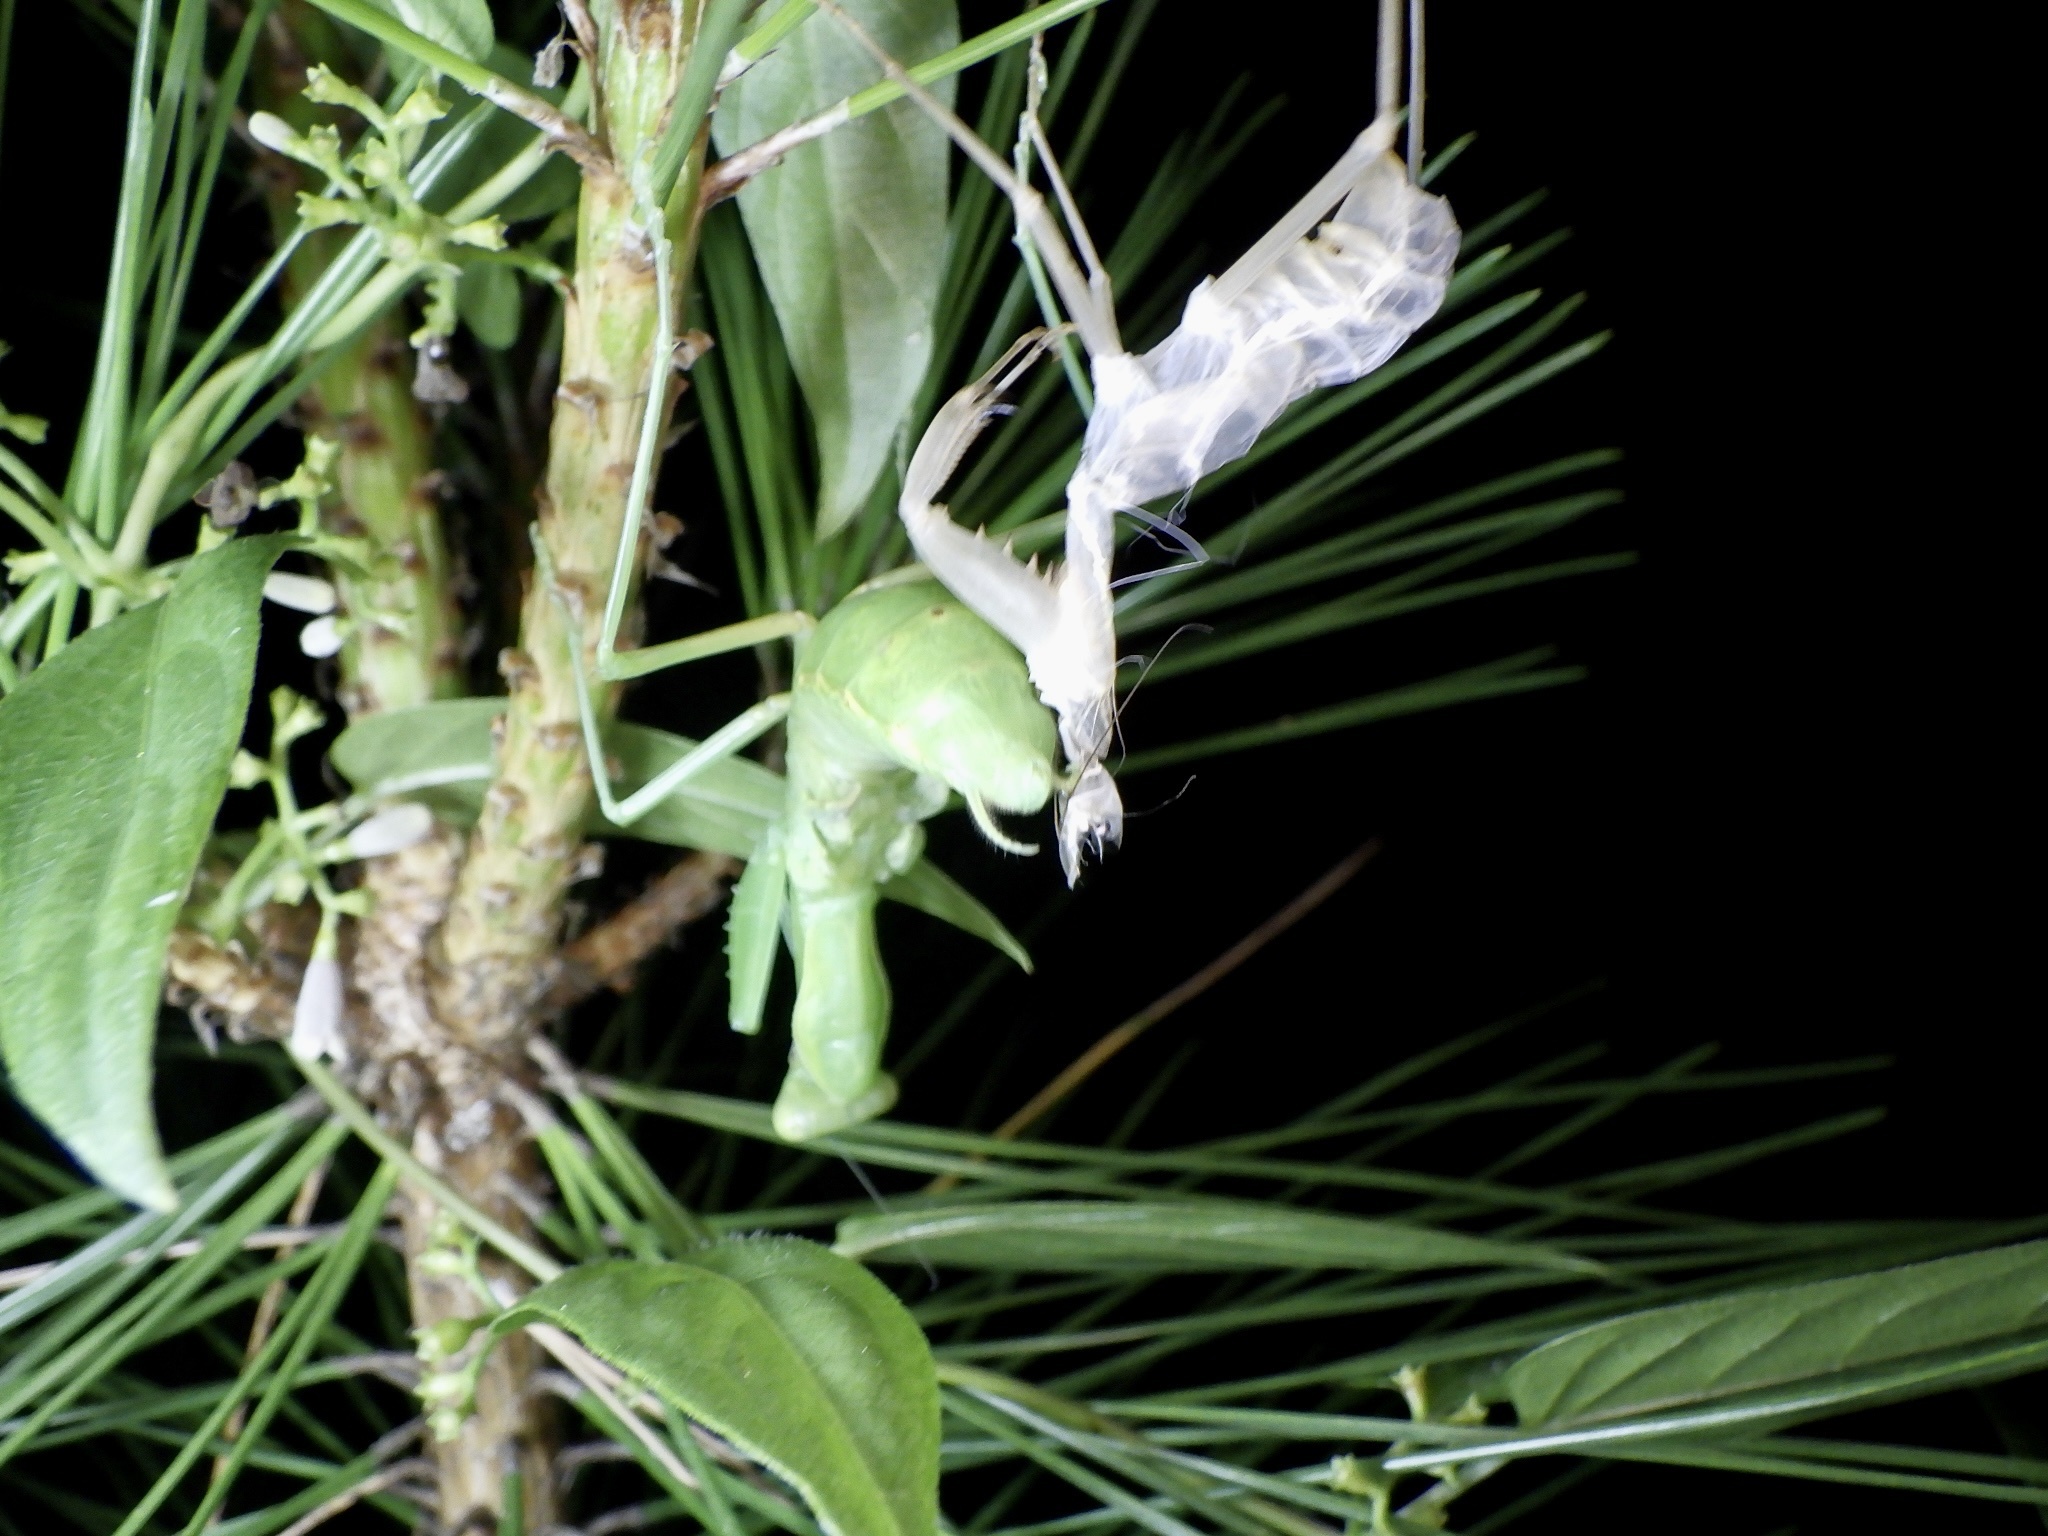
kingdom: Animalia
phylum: Arthropoda
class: Insecta
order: Mantodea
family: Mantidae
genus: Hierodula
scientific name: Hierodula patellifera
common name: Asian mantis
